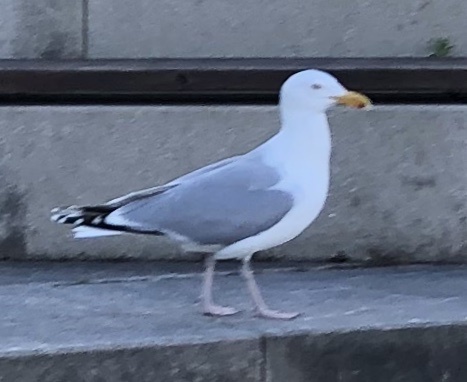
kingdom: Animalia
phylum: Chordata
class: Aves
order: Charadriiformes
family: Laridae
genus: Larus
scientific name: Larus argentatus
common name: Herring gull
